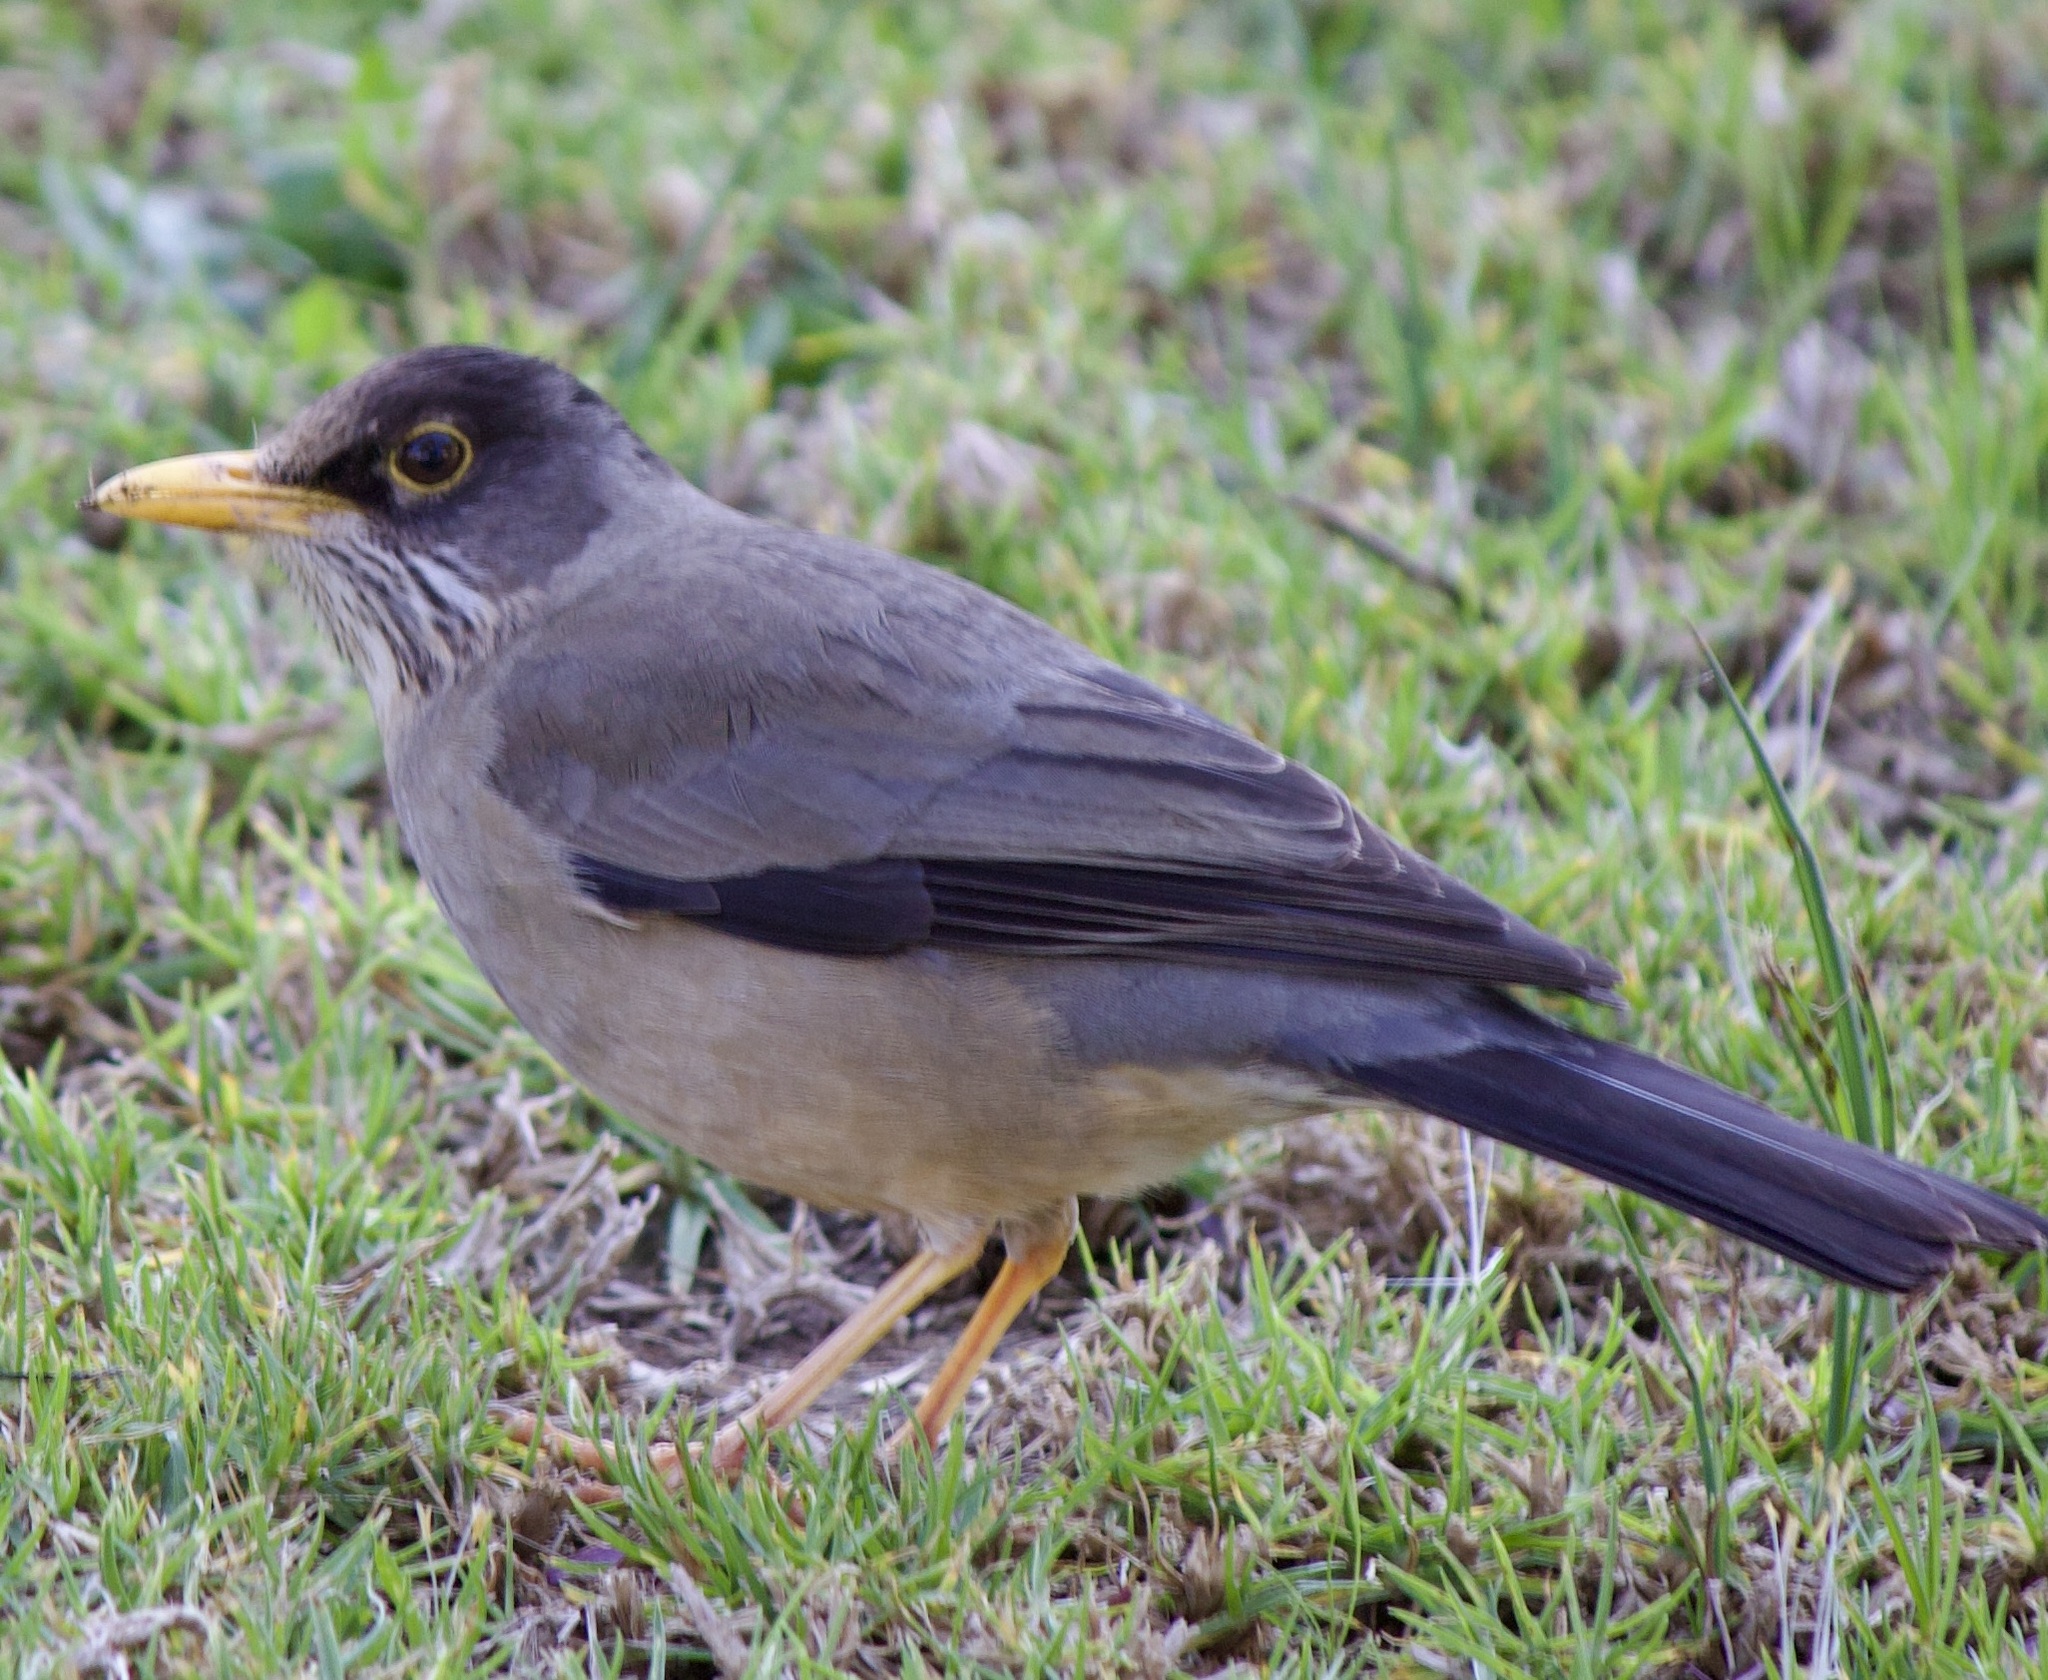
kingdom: Animalia
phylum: Chordata
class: Aves
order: Passeriformes
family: Turdidae
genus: Turdus
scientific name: Turdus falcklandii
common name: Austral thrush
